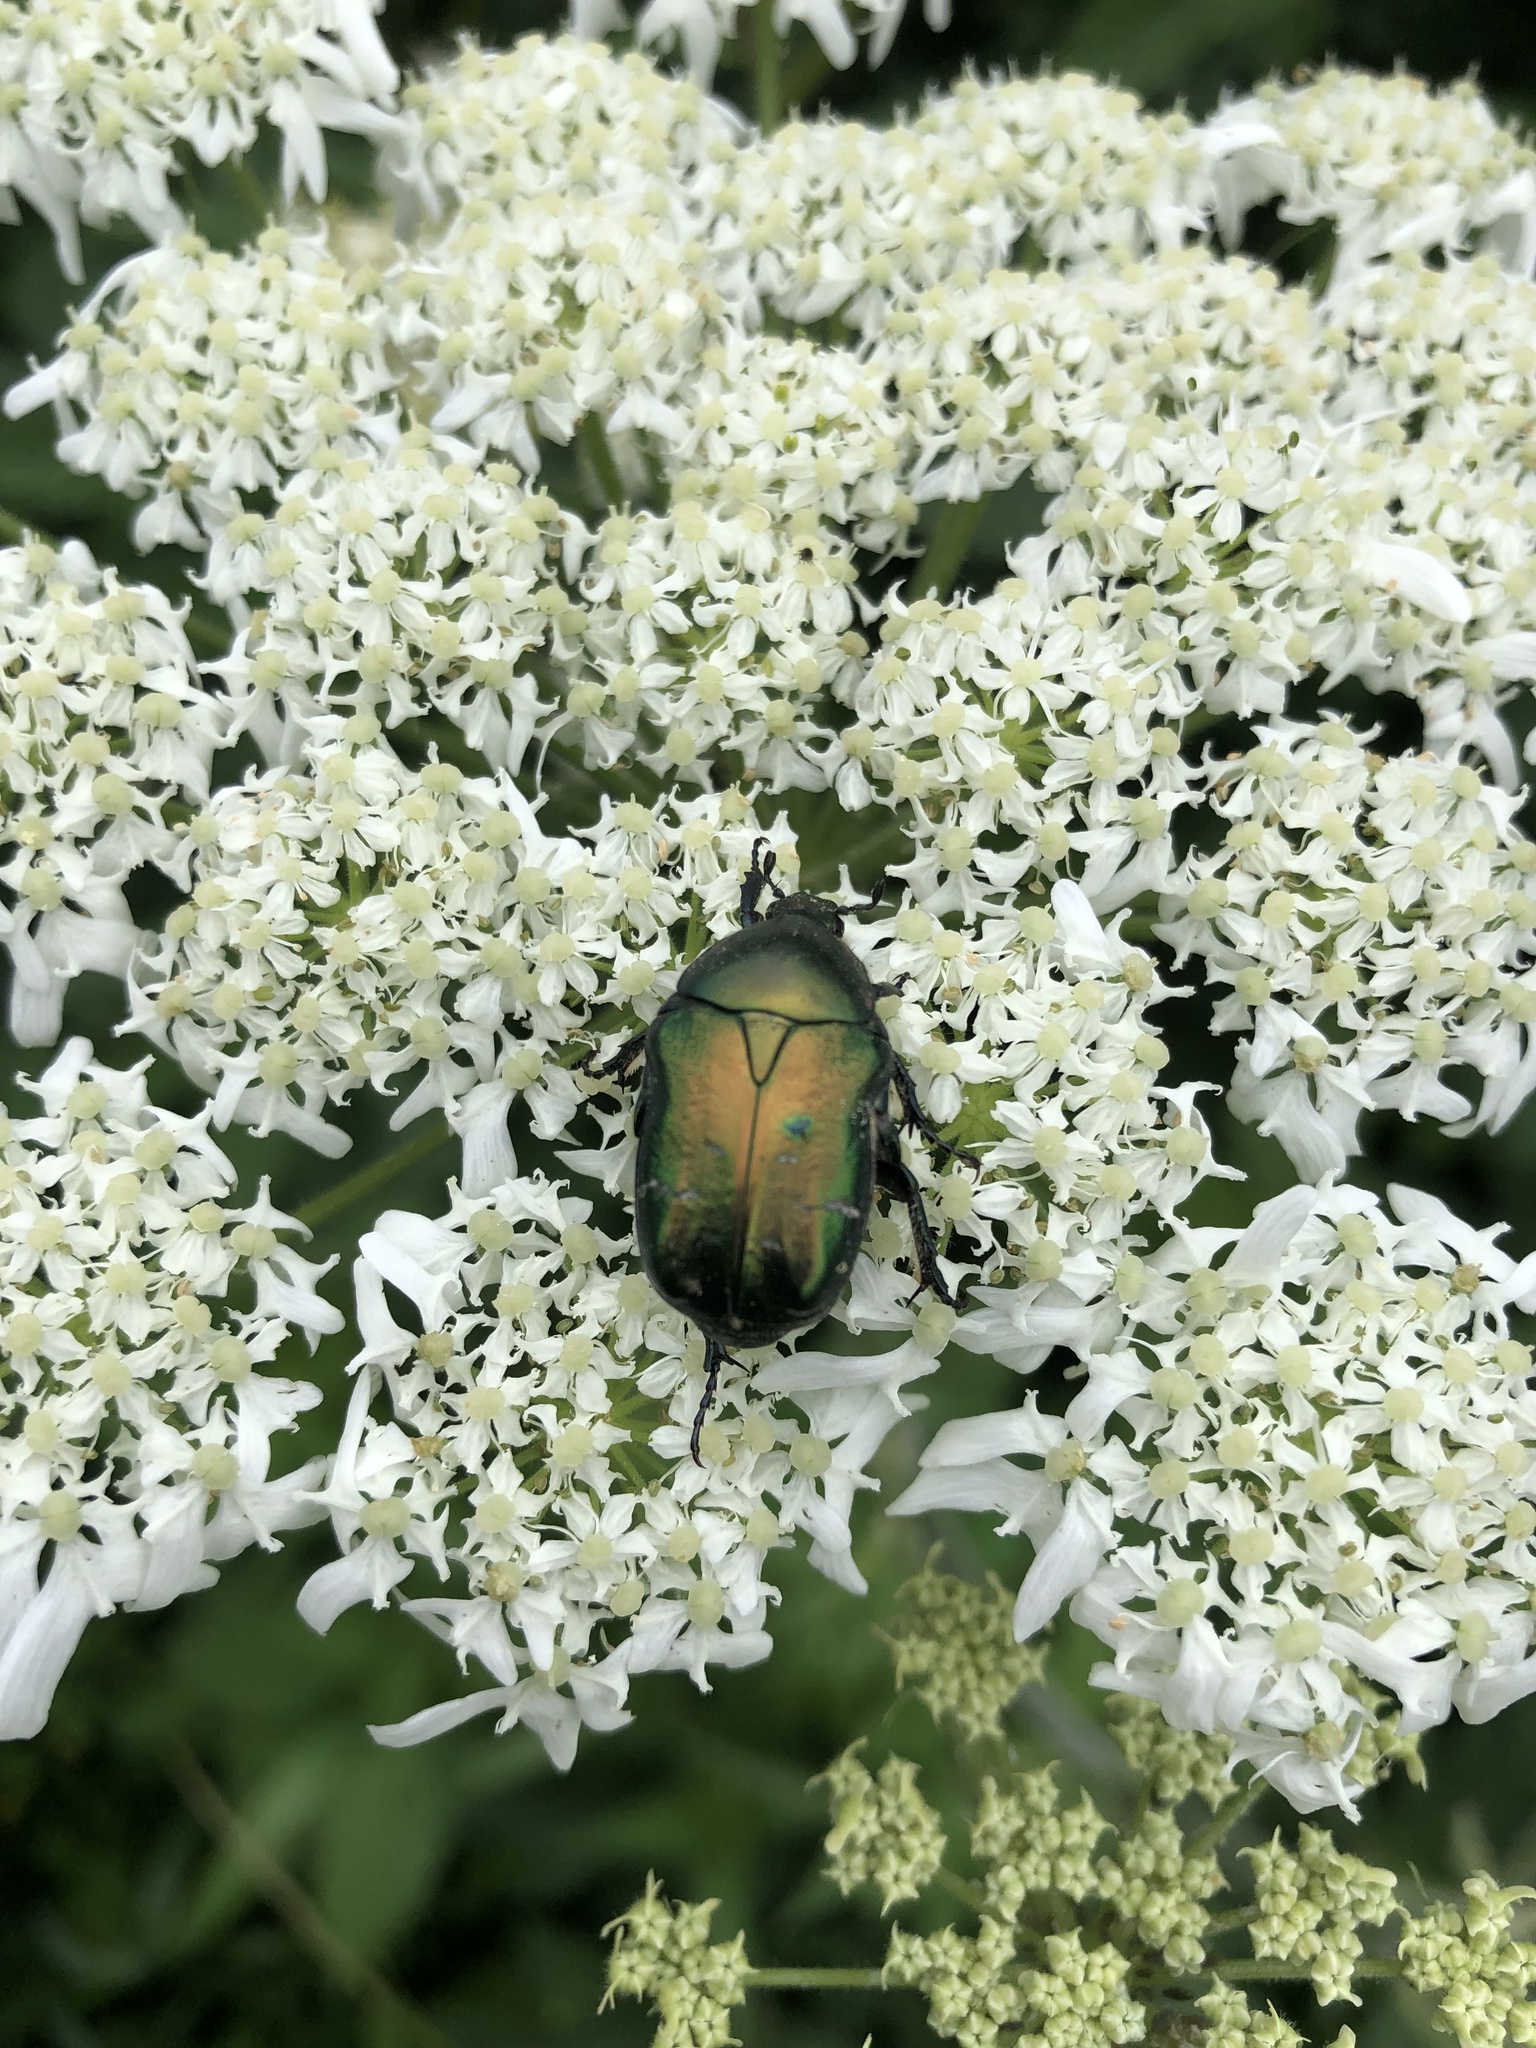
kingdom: Animalia
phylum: Arthropoda
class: Insecta
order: Coleoptera
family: Scarabaeidae
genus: Cetonia
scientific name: Cetonia aurata
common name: Rose chafer
